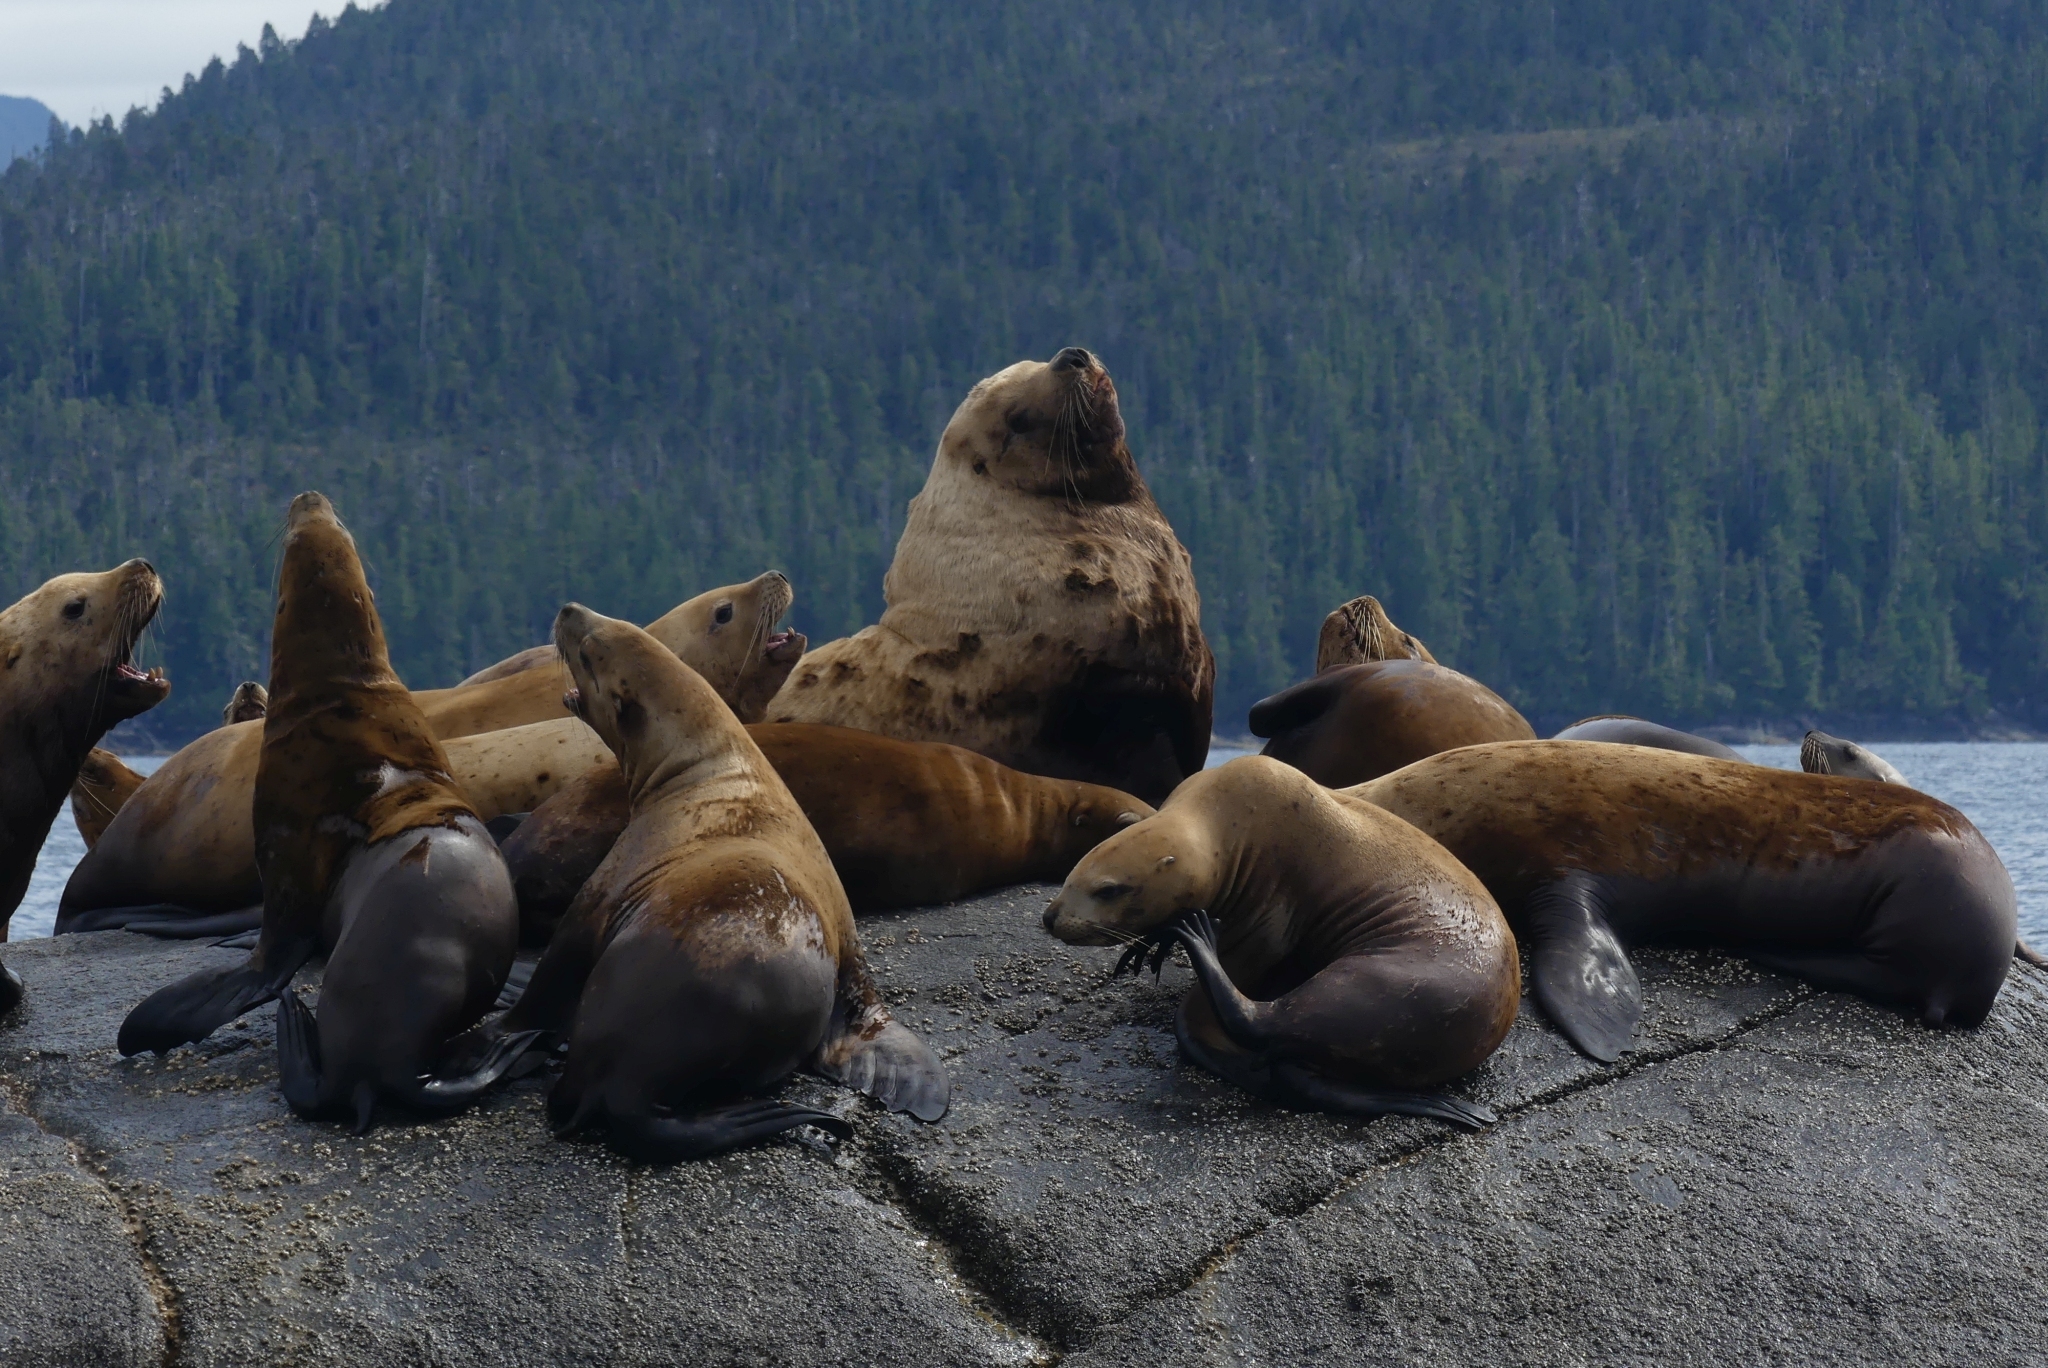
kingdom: Animalia
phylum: Chordata
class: Mammalia
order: Carnivora
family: Otariidae
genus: Eumetopias
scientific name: Eumetopias jubatus
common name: Steller sea lion
